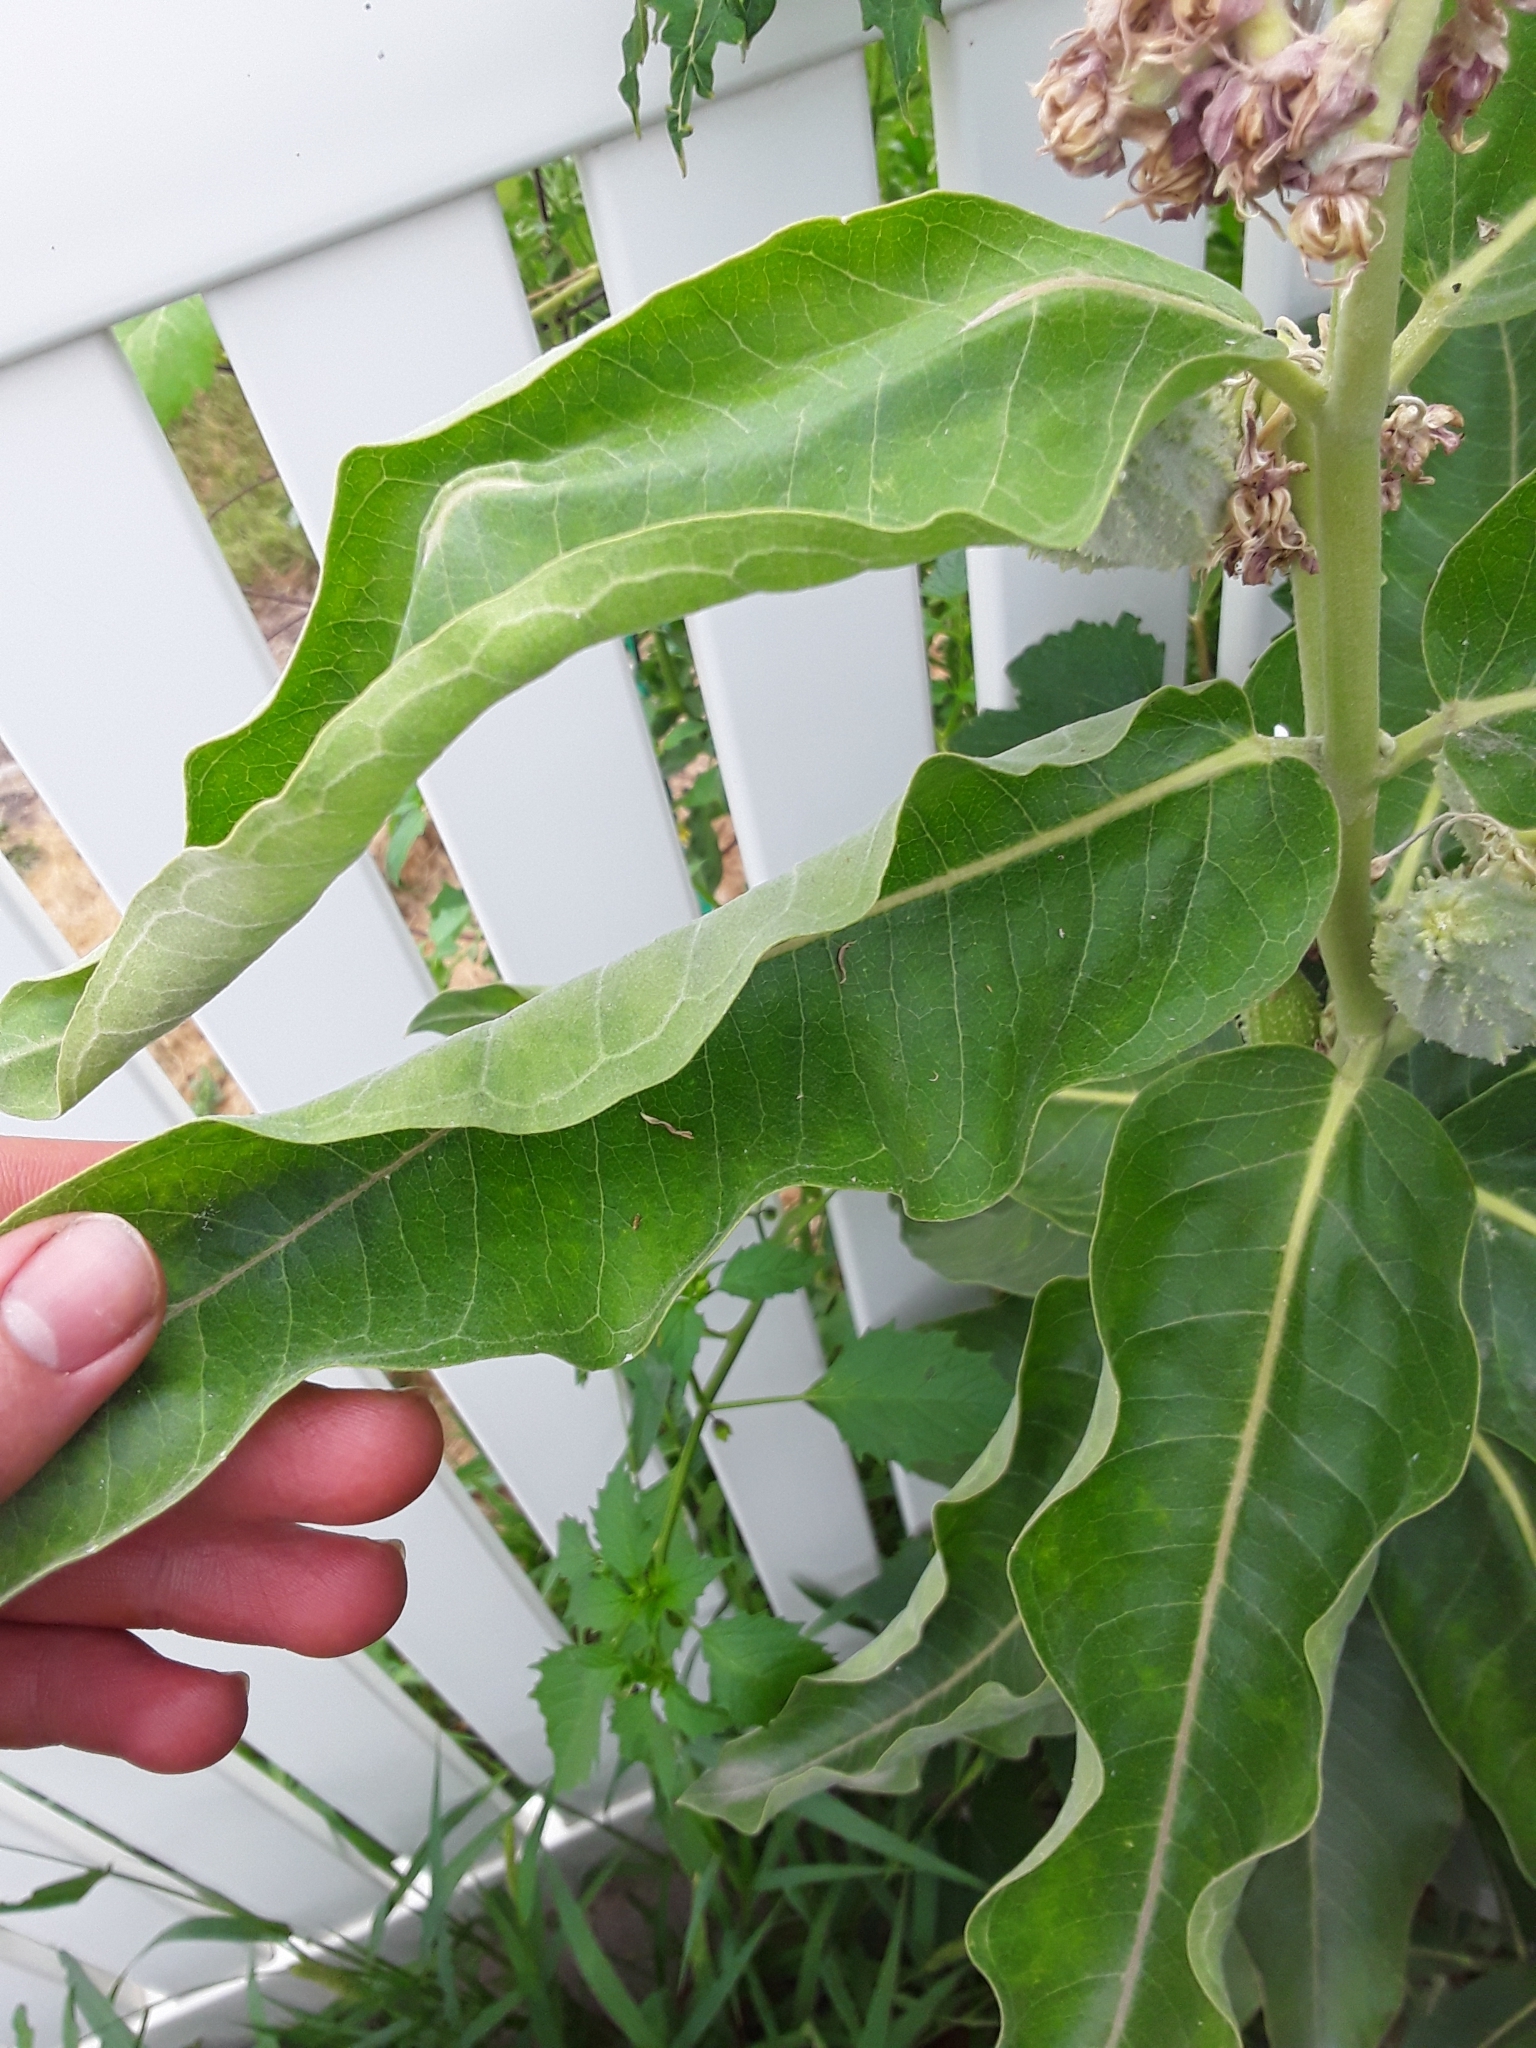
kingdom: Plantae
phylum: Tracheophyta
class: Magnoliopsida
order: Gentianales
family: Apocynaceae
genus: Asclepias
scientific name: Asclepias speciosa
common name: Showy milkweed
